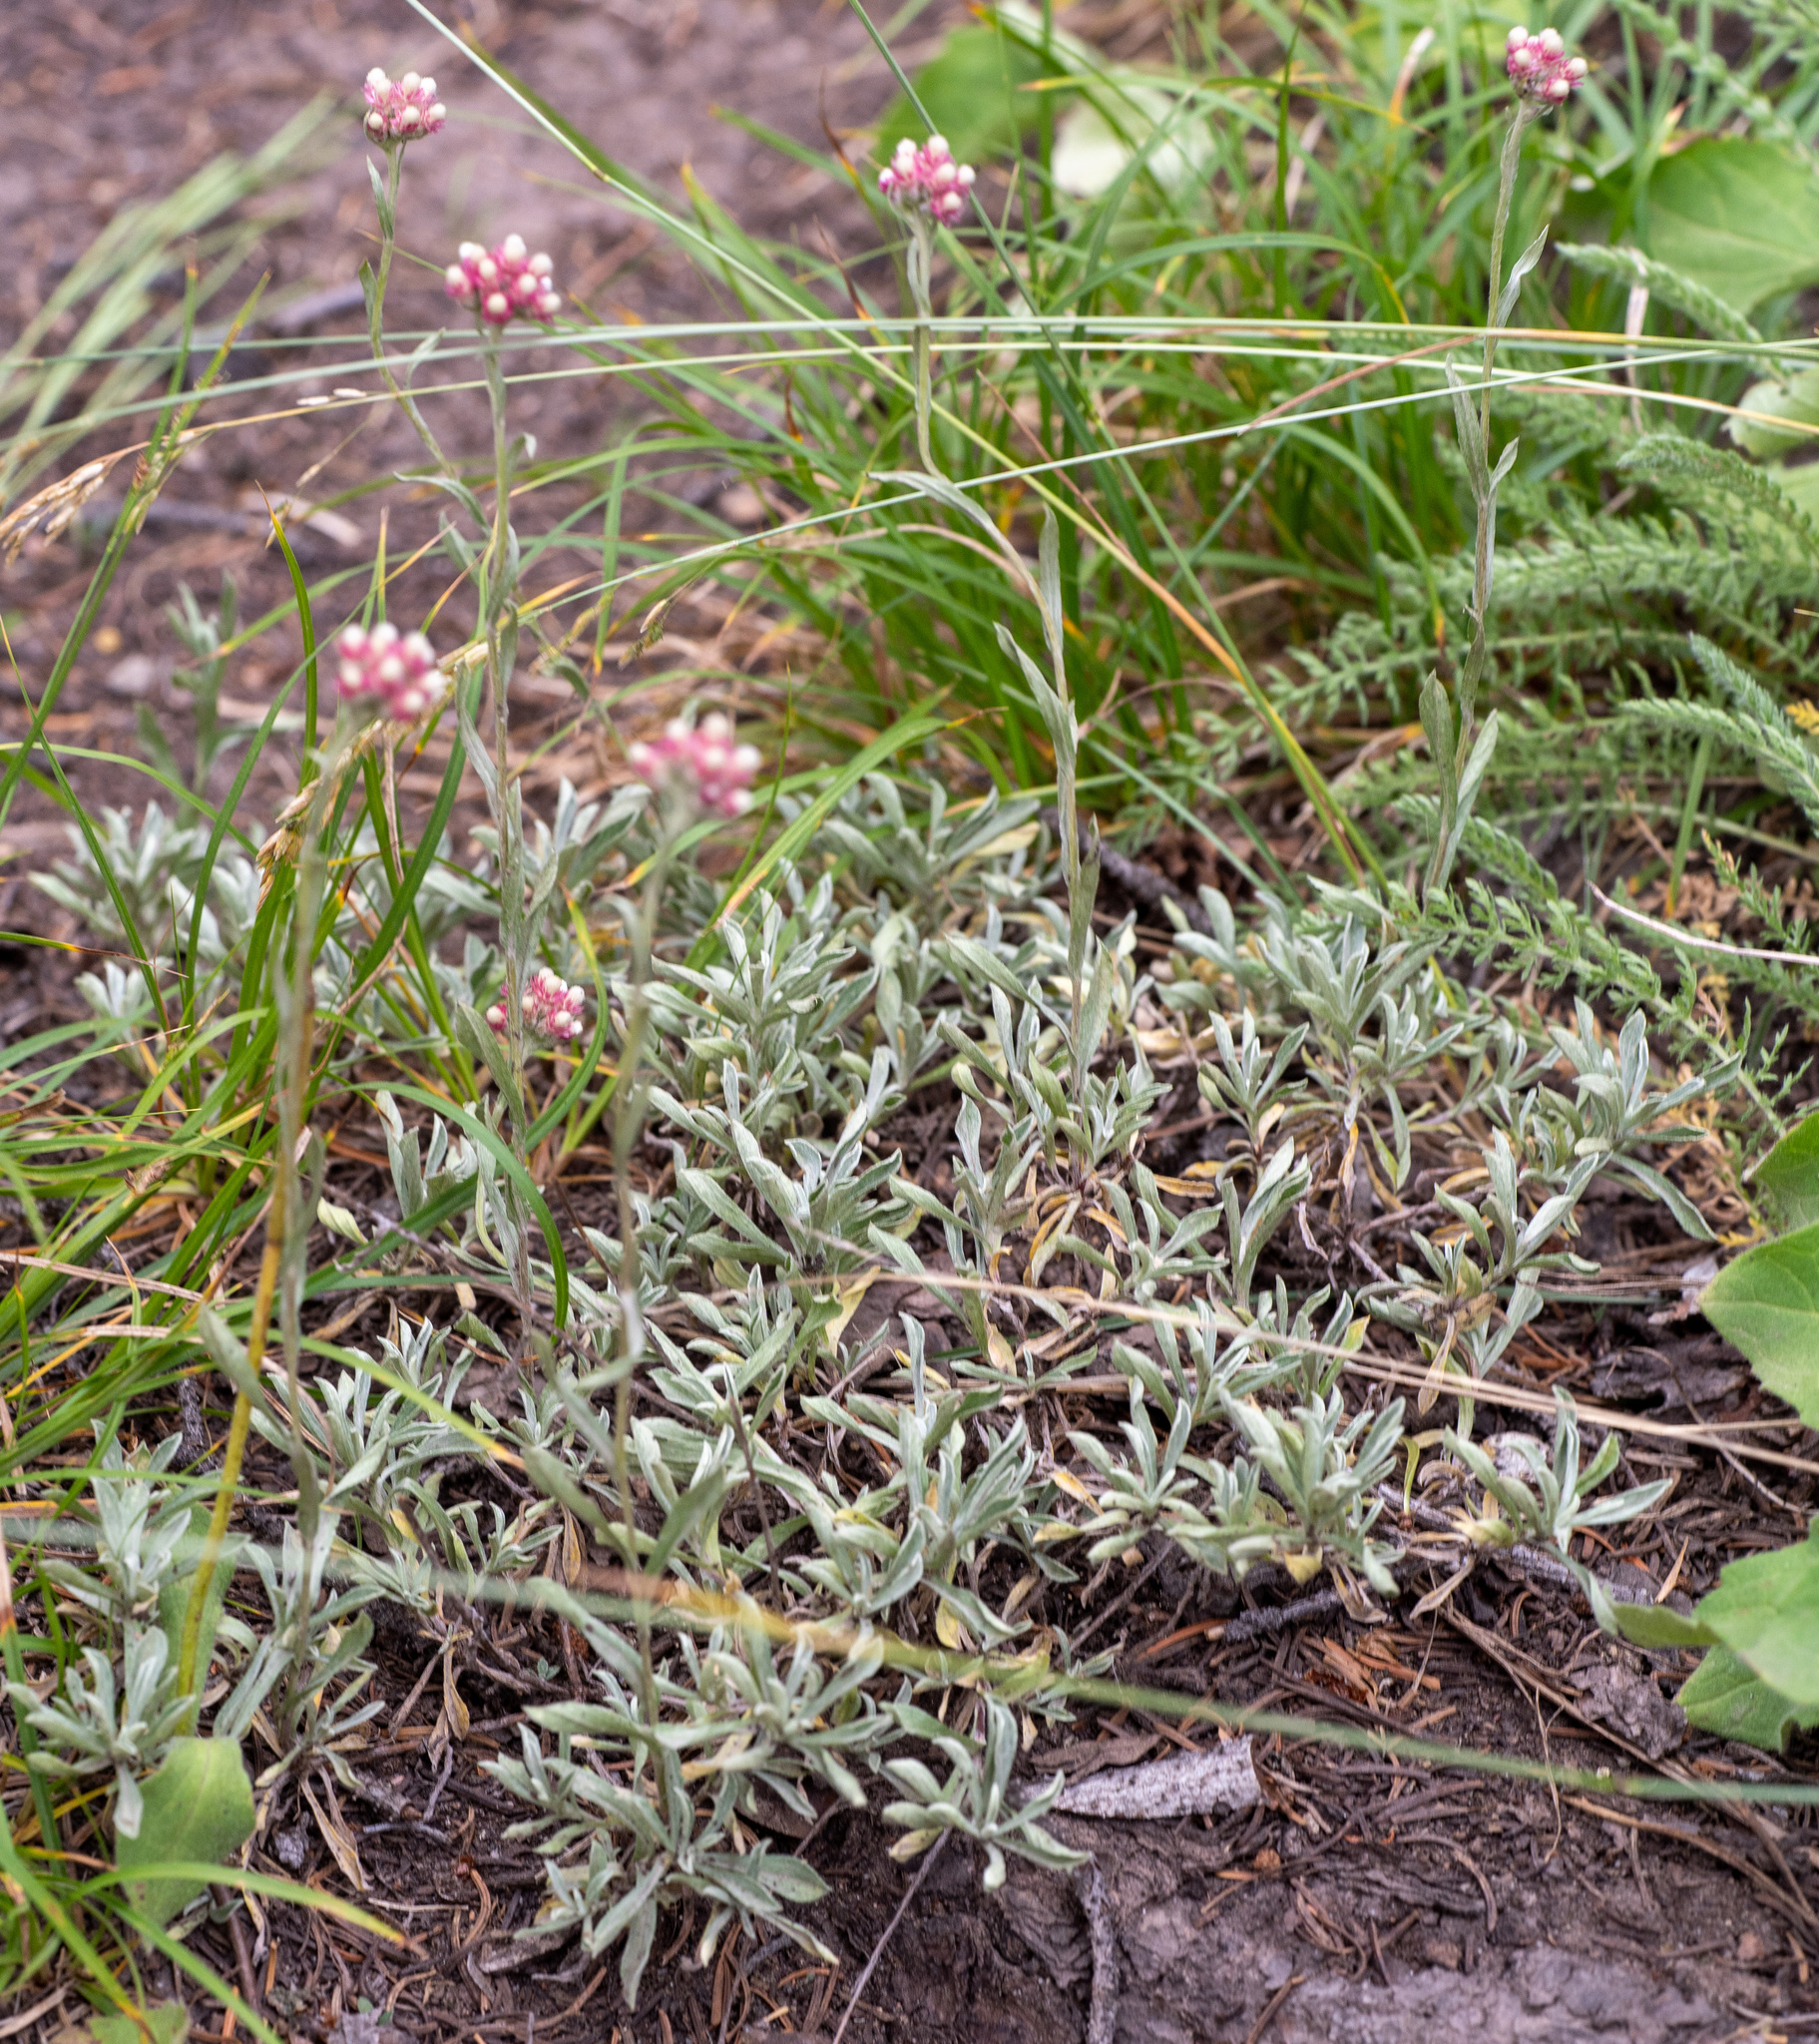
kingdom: Plantae
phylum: Tracheophyta
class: Magnoliopsida
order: Asterales
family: Asteraceae
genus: Antennaria
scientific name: Antennaria rosea
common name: Rosy pussytoes
